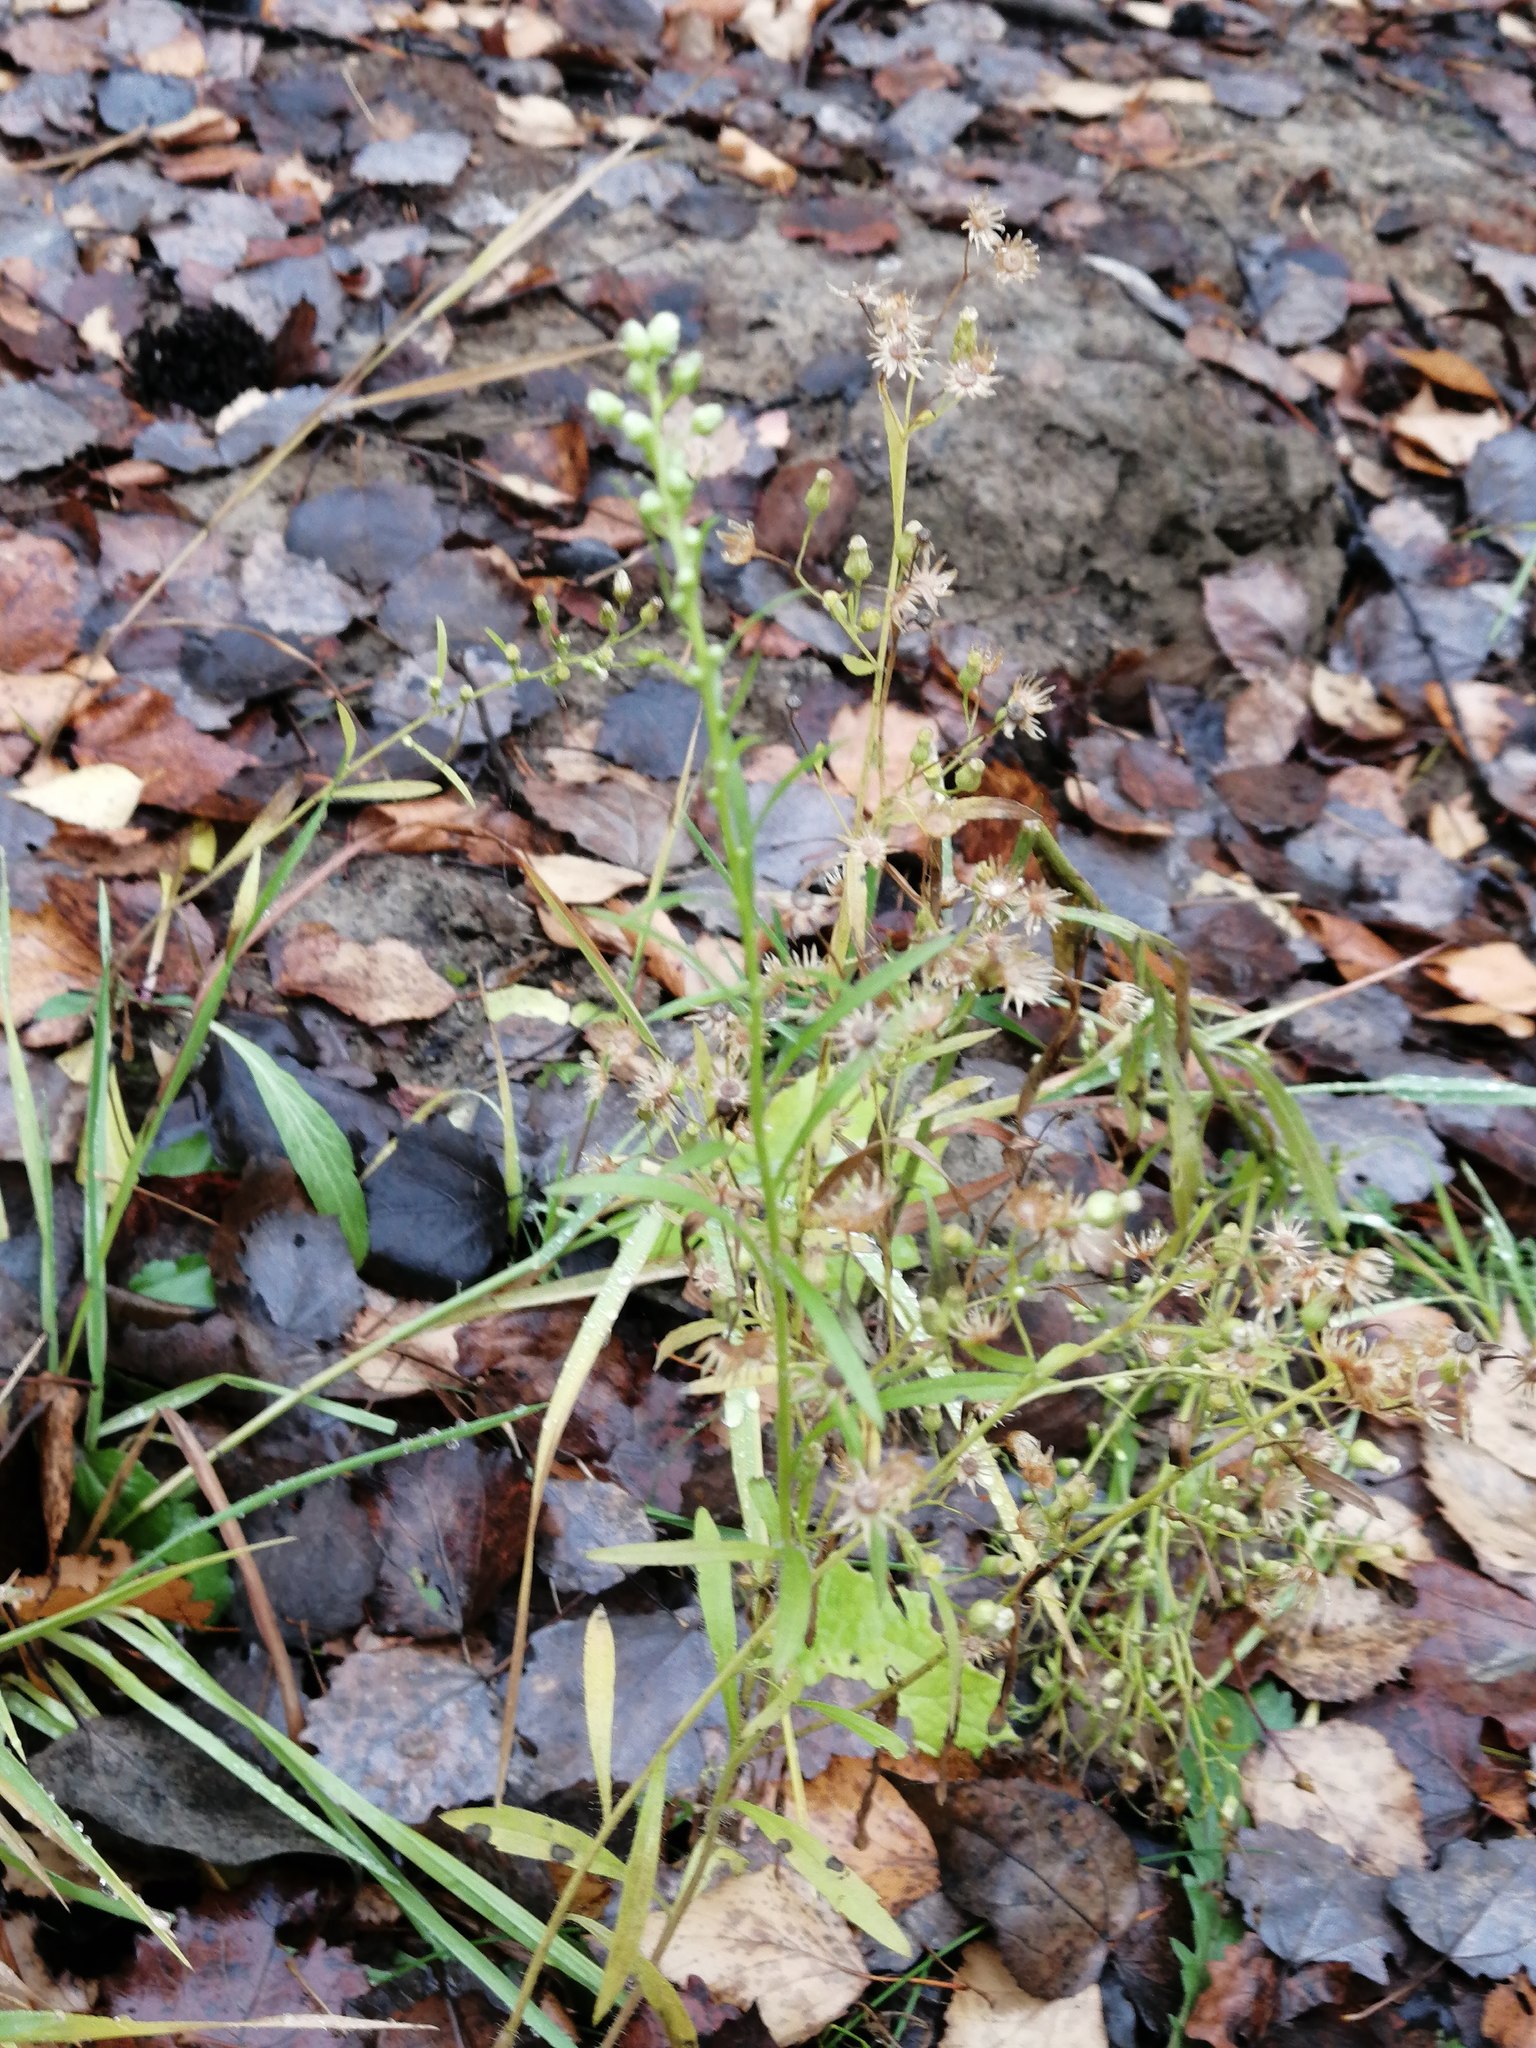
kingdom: Plantae
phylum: Tracheophyta
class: Magnoliopsida
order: Asterales
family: Asteraceae
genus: Erigeron
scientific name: Erigeron canadensis
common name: Canadian fleabane
